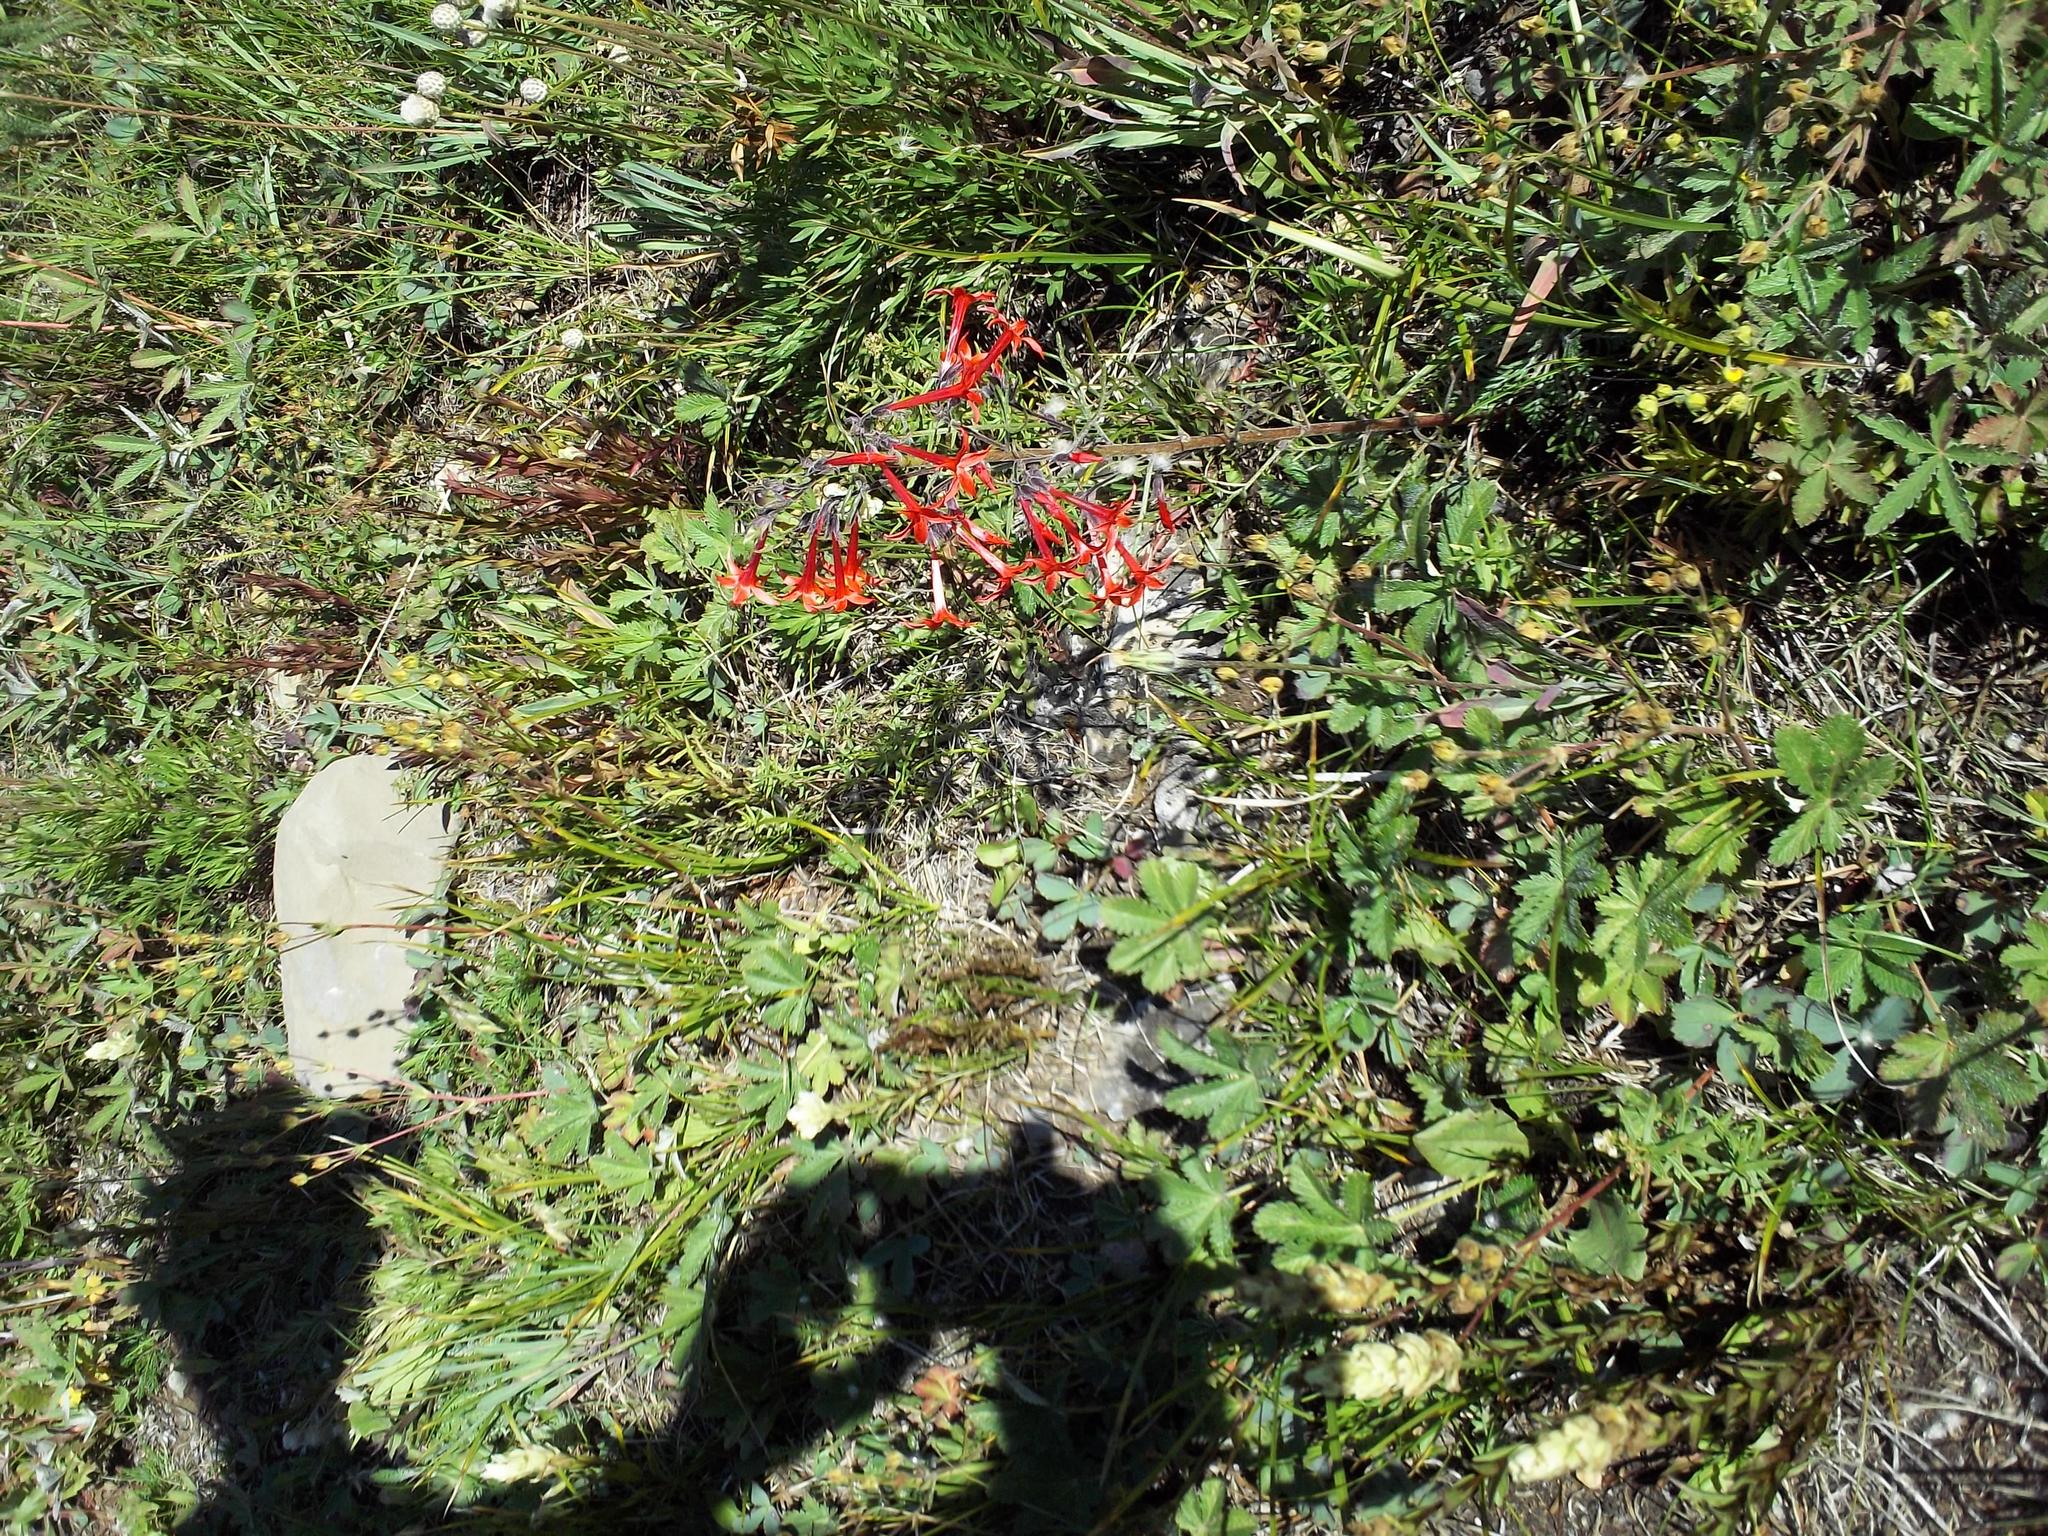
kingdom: Plantae
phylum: Tracheophyta
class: Magnoliopsida
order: Ericales
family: Polemoniaceae
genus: Ipomopsis
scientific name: Ipomopsis aggregata
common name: Scarlet gilia
